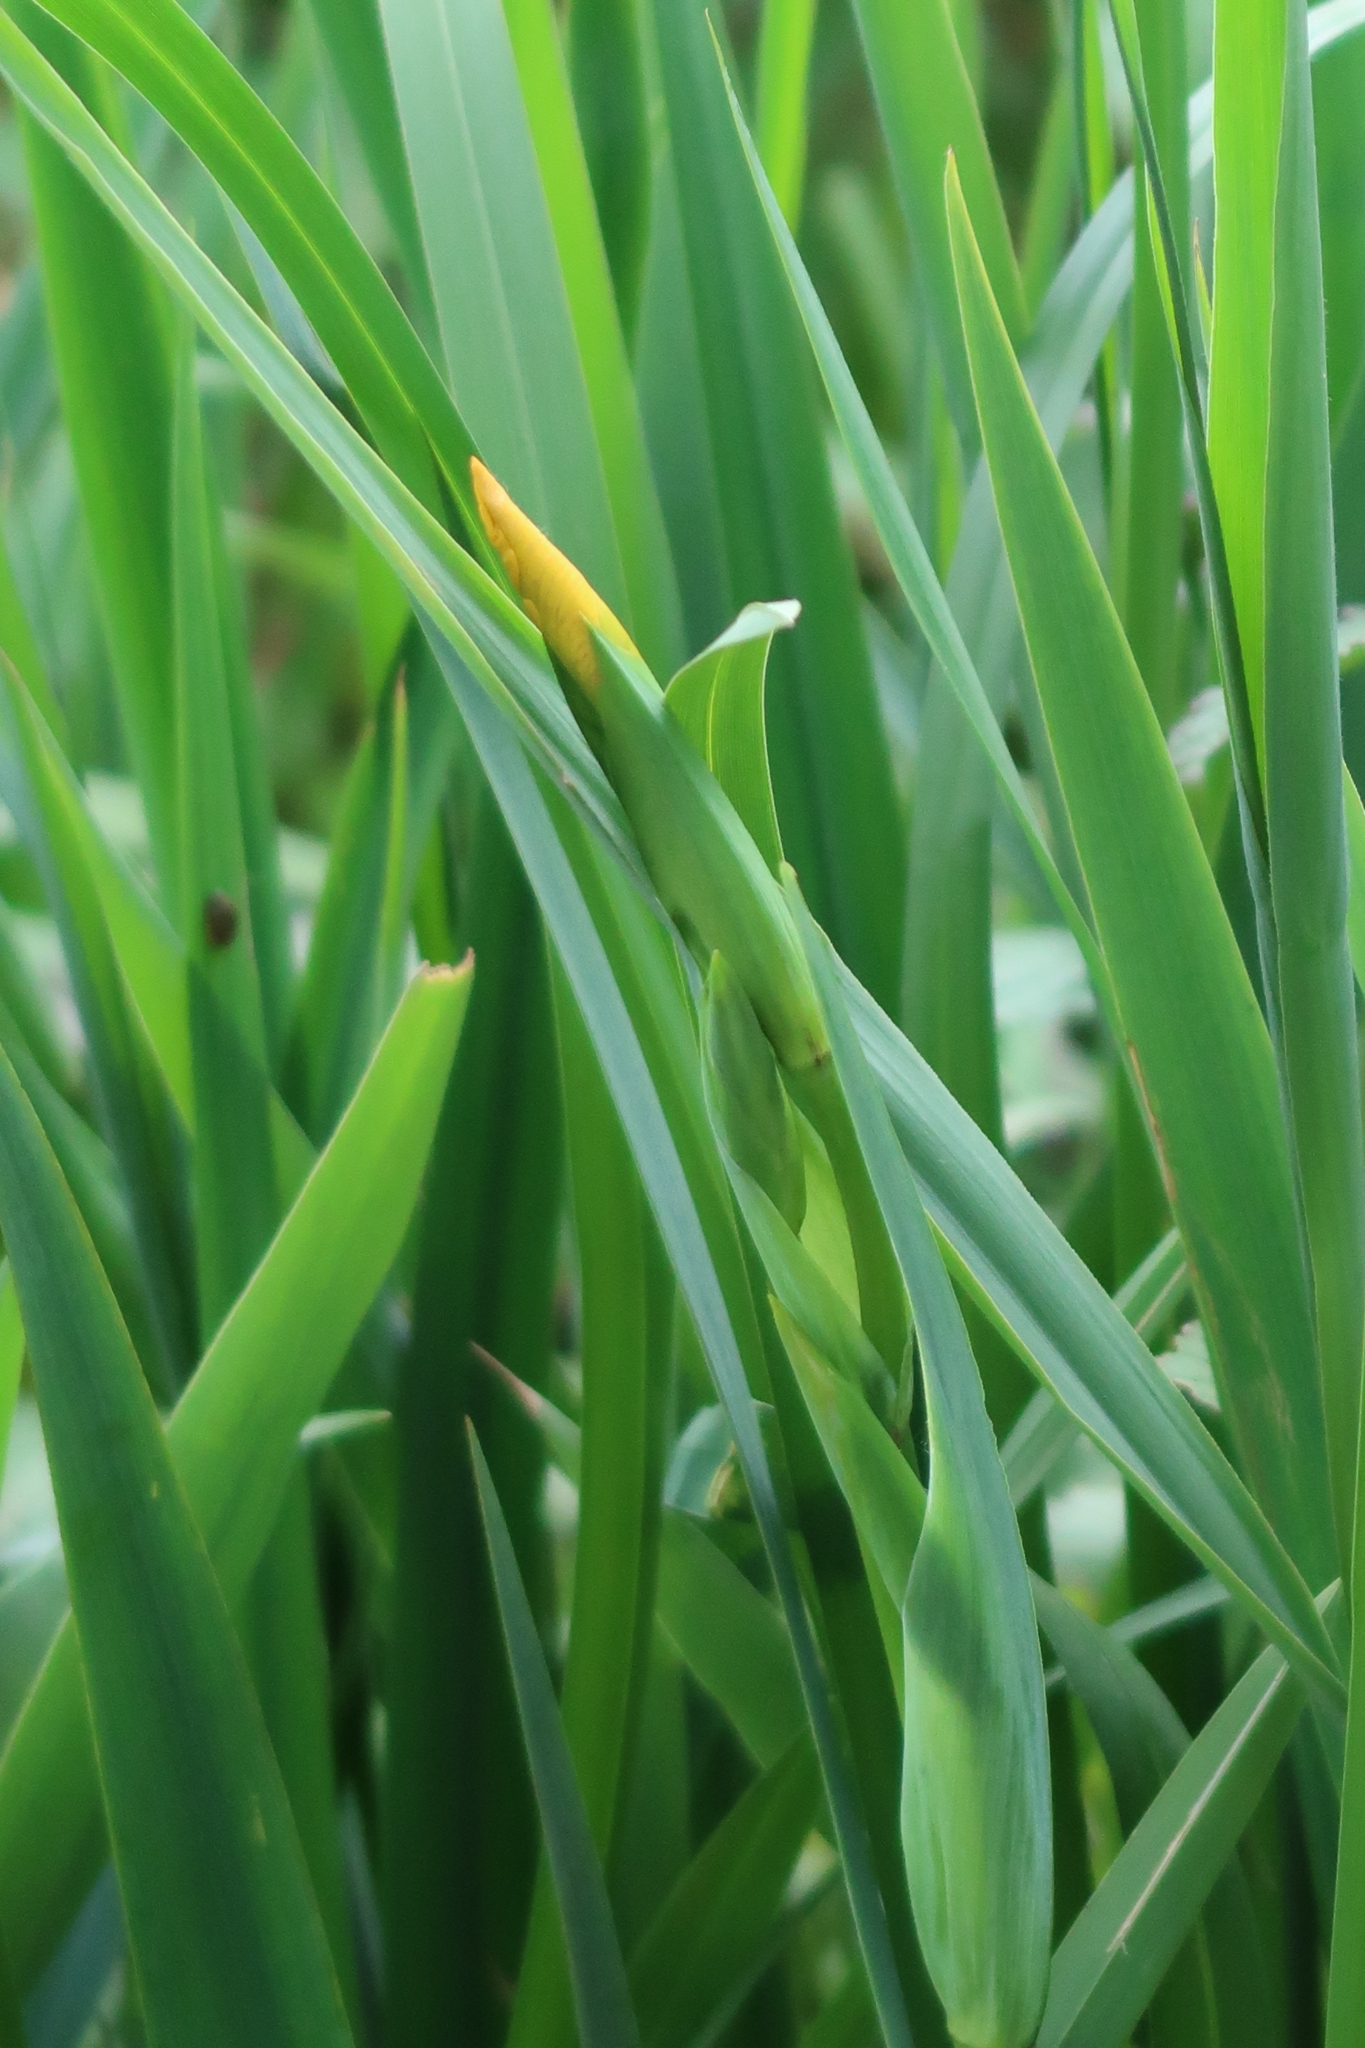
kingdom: Plantae
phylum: Tracheophyta
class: Liliopsida
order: Asparagales
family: Iridaceae
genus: Iris
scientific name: Iris pseudacorus
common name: Yellow flag
